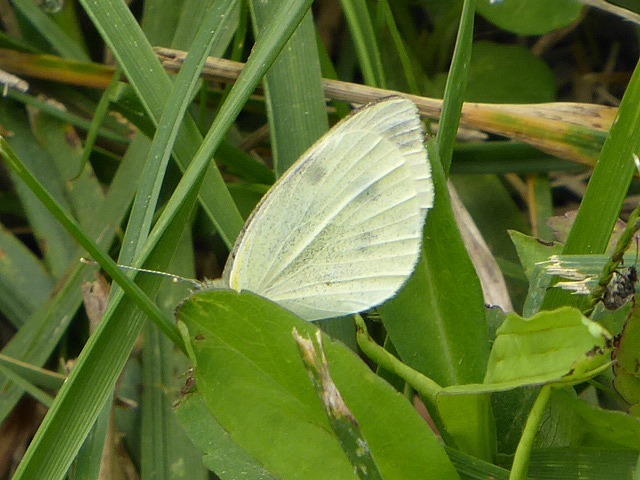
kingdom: Animalia
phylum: Arthropoda
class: Insecta
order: Lepidoptera
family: Pieridae
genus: Pieris
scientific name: Pieris rapae
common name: Small white
